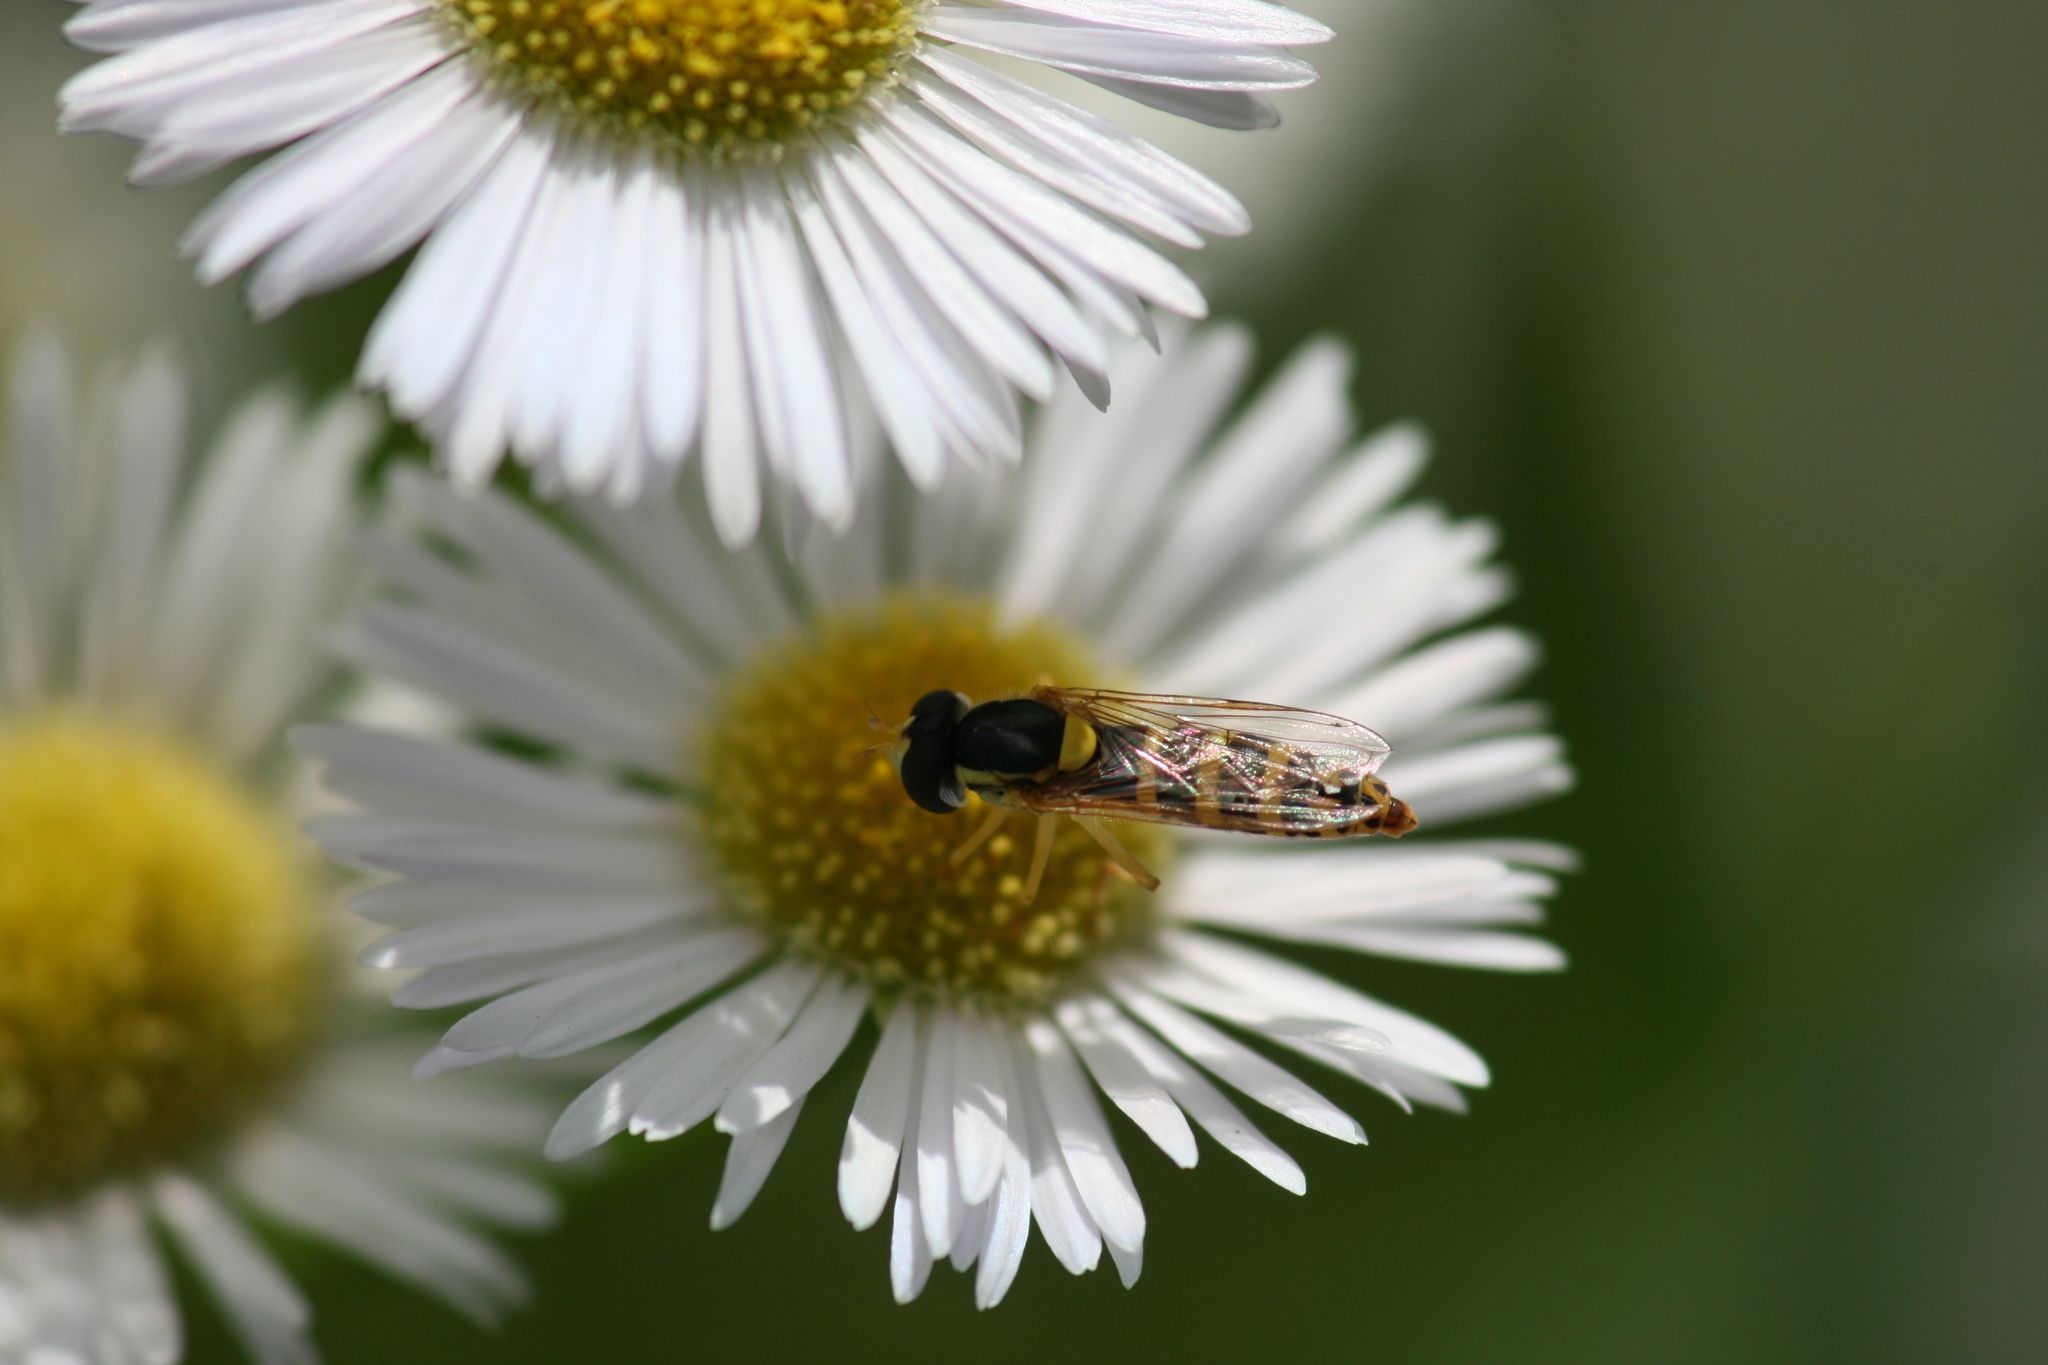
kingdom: Animalia
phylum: Arthropoda
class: Insecta
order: Diptera
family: Syrphidae
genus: Sphaerophoria
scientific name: Sphaerophoria
